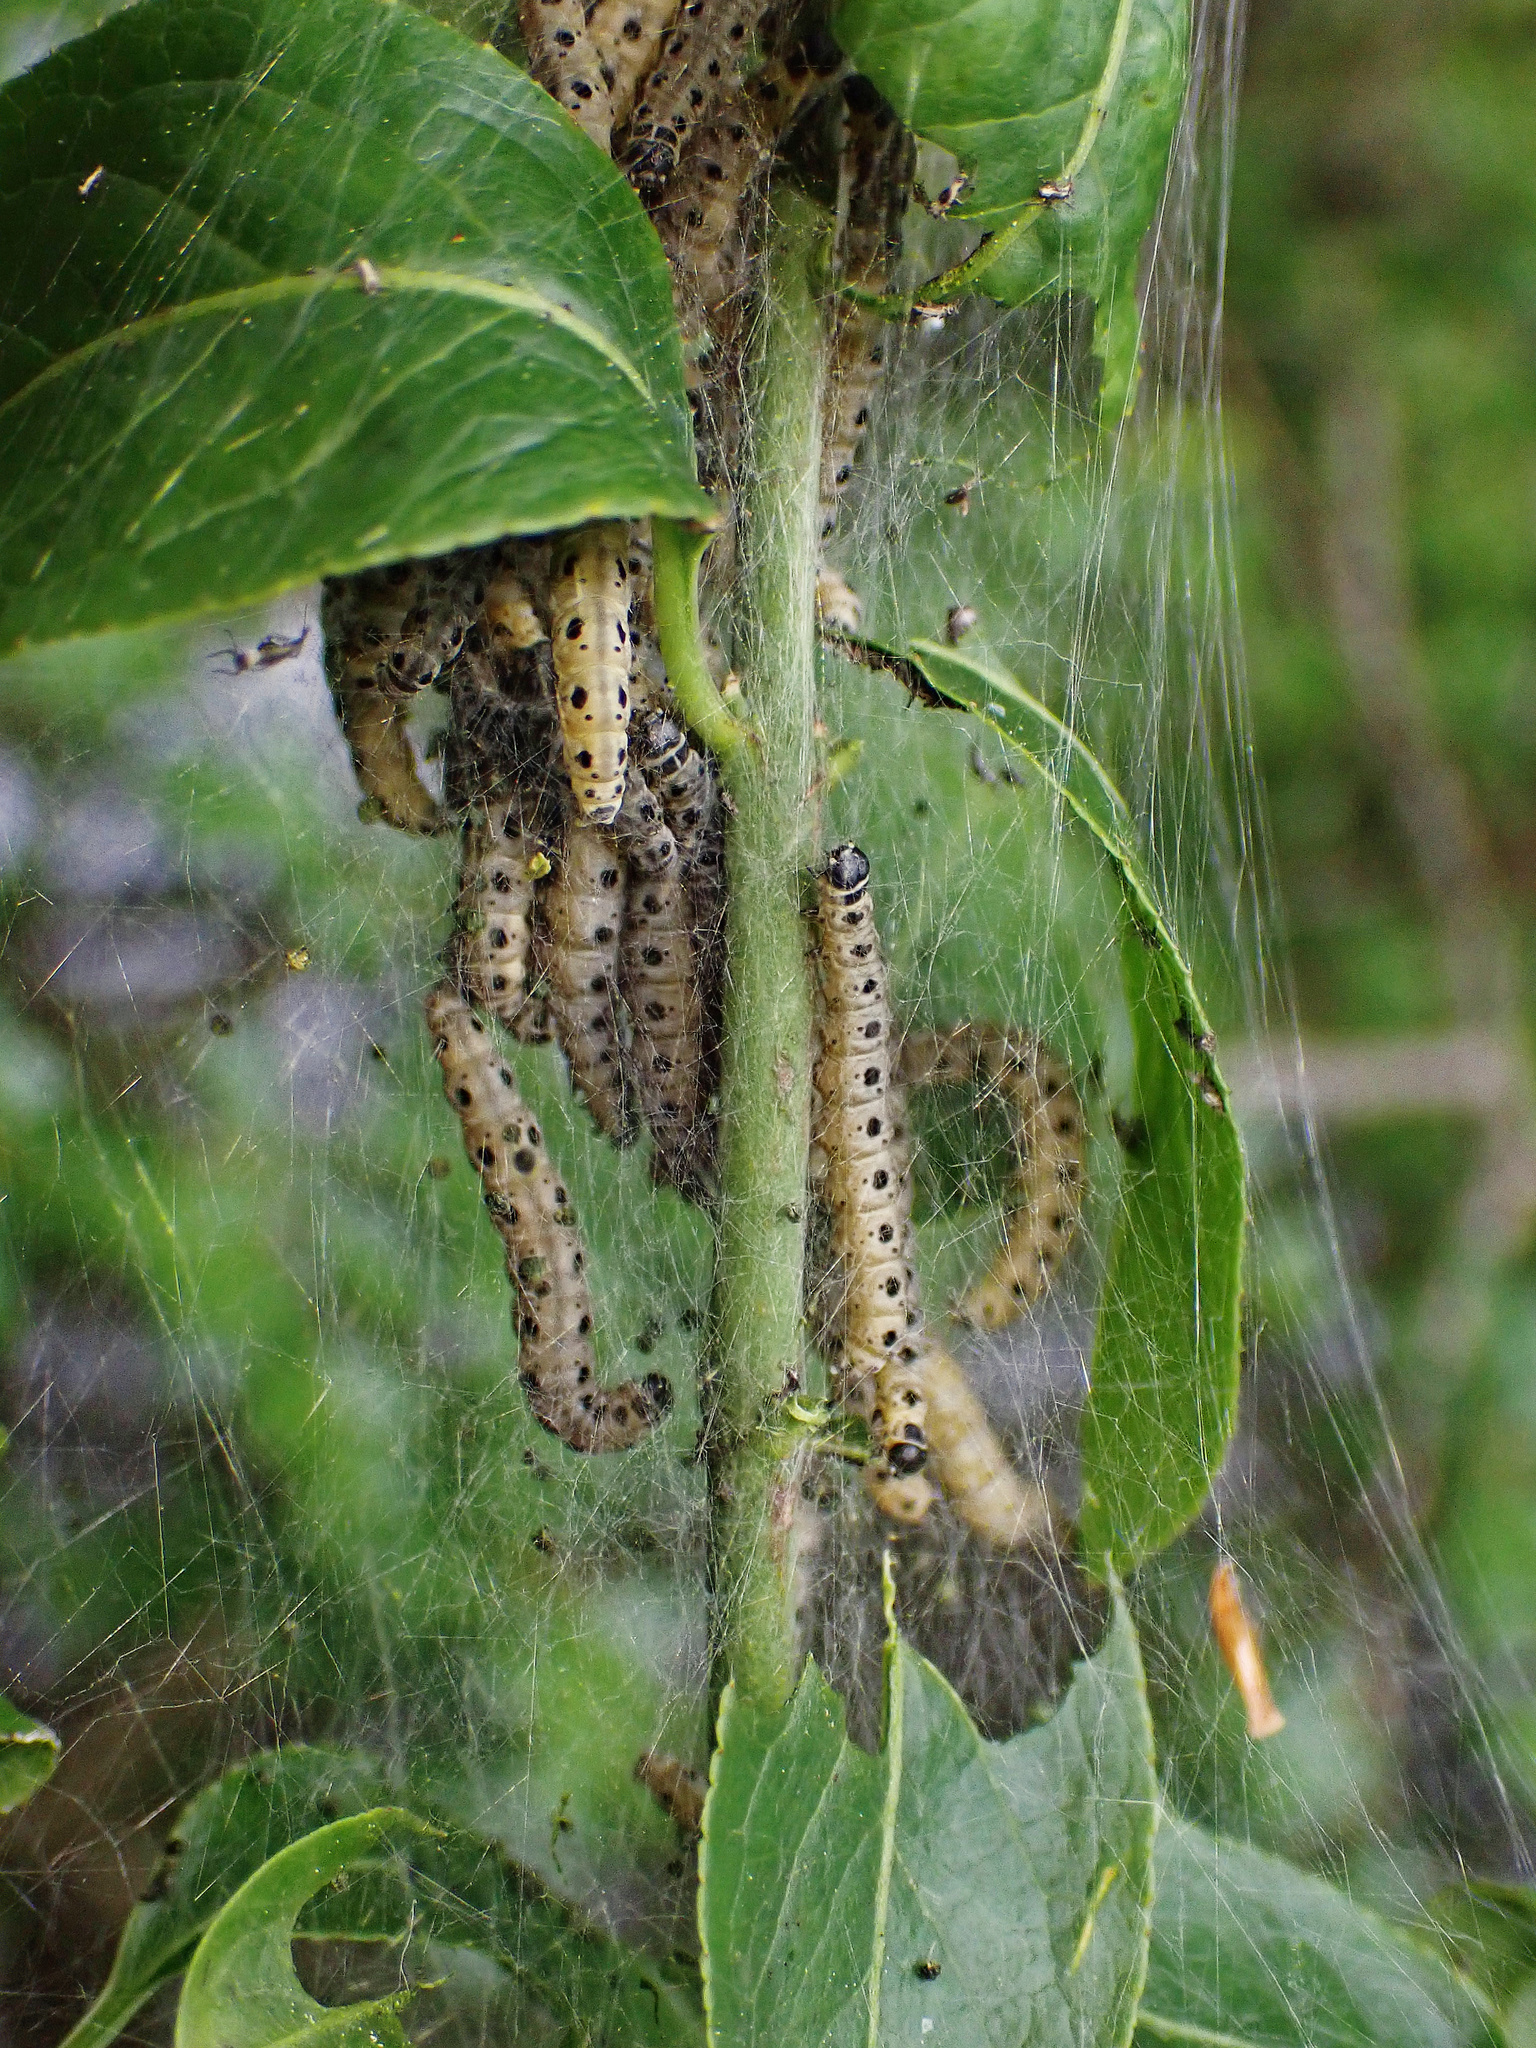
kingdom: Animalia
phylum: Arthropoda
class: Insecta
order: Lepidoptera
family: Yponomeutidae
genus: Yponomeuta
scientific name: Yponomeuta cagnagellus
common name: Spindle ermine
